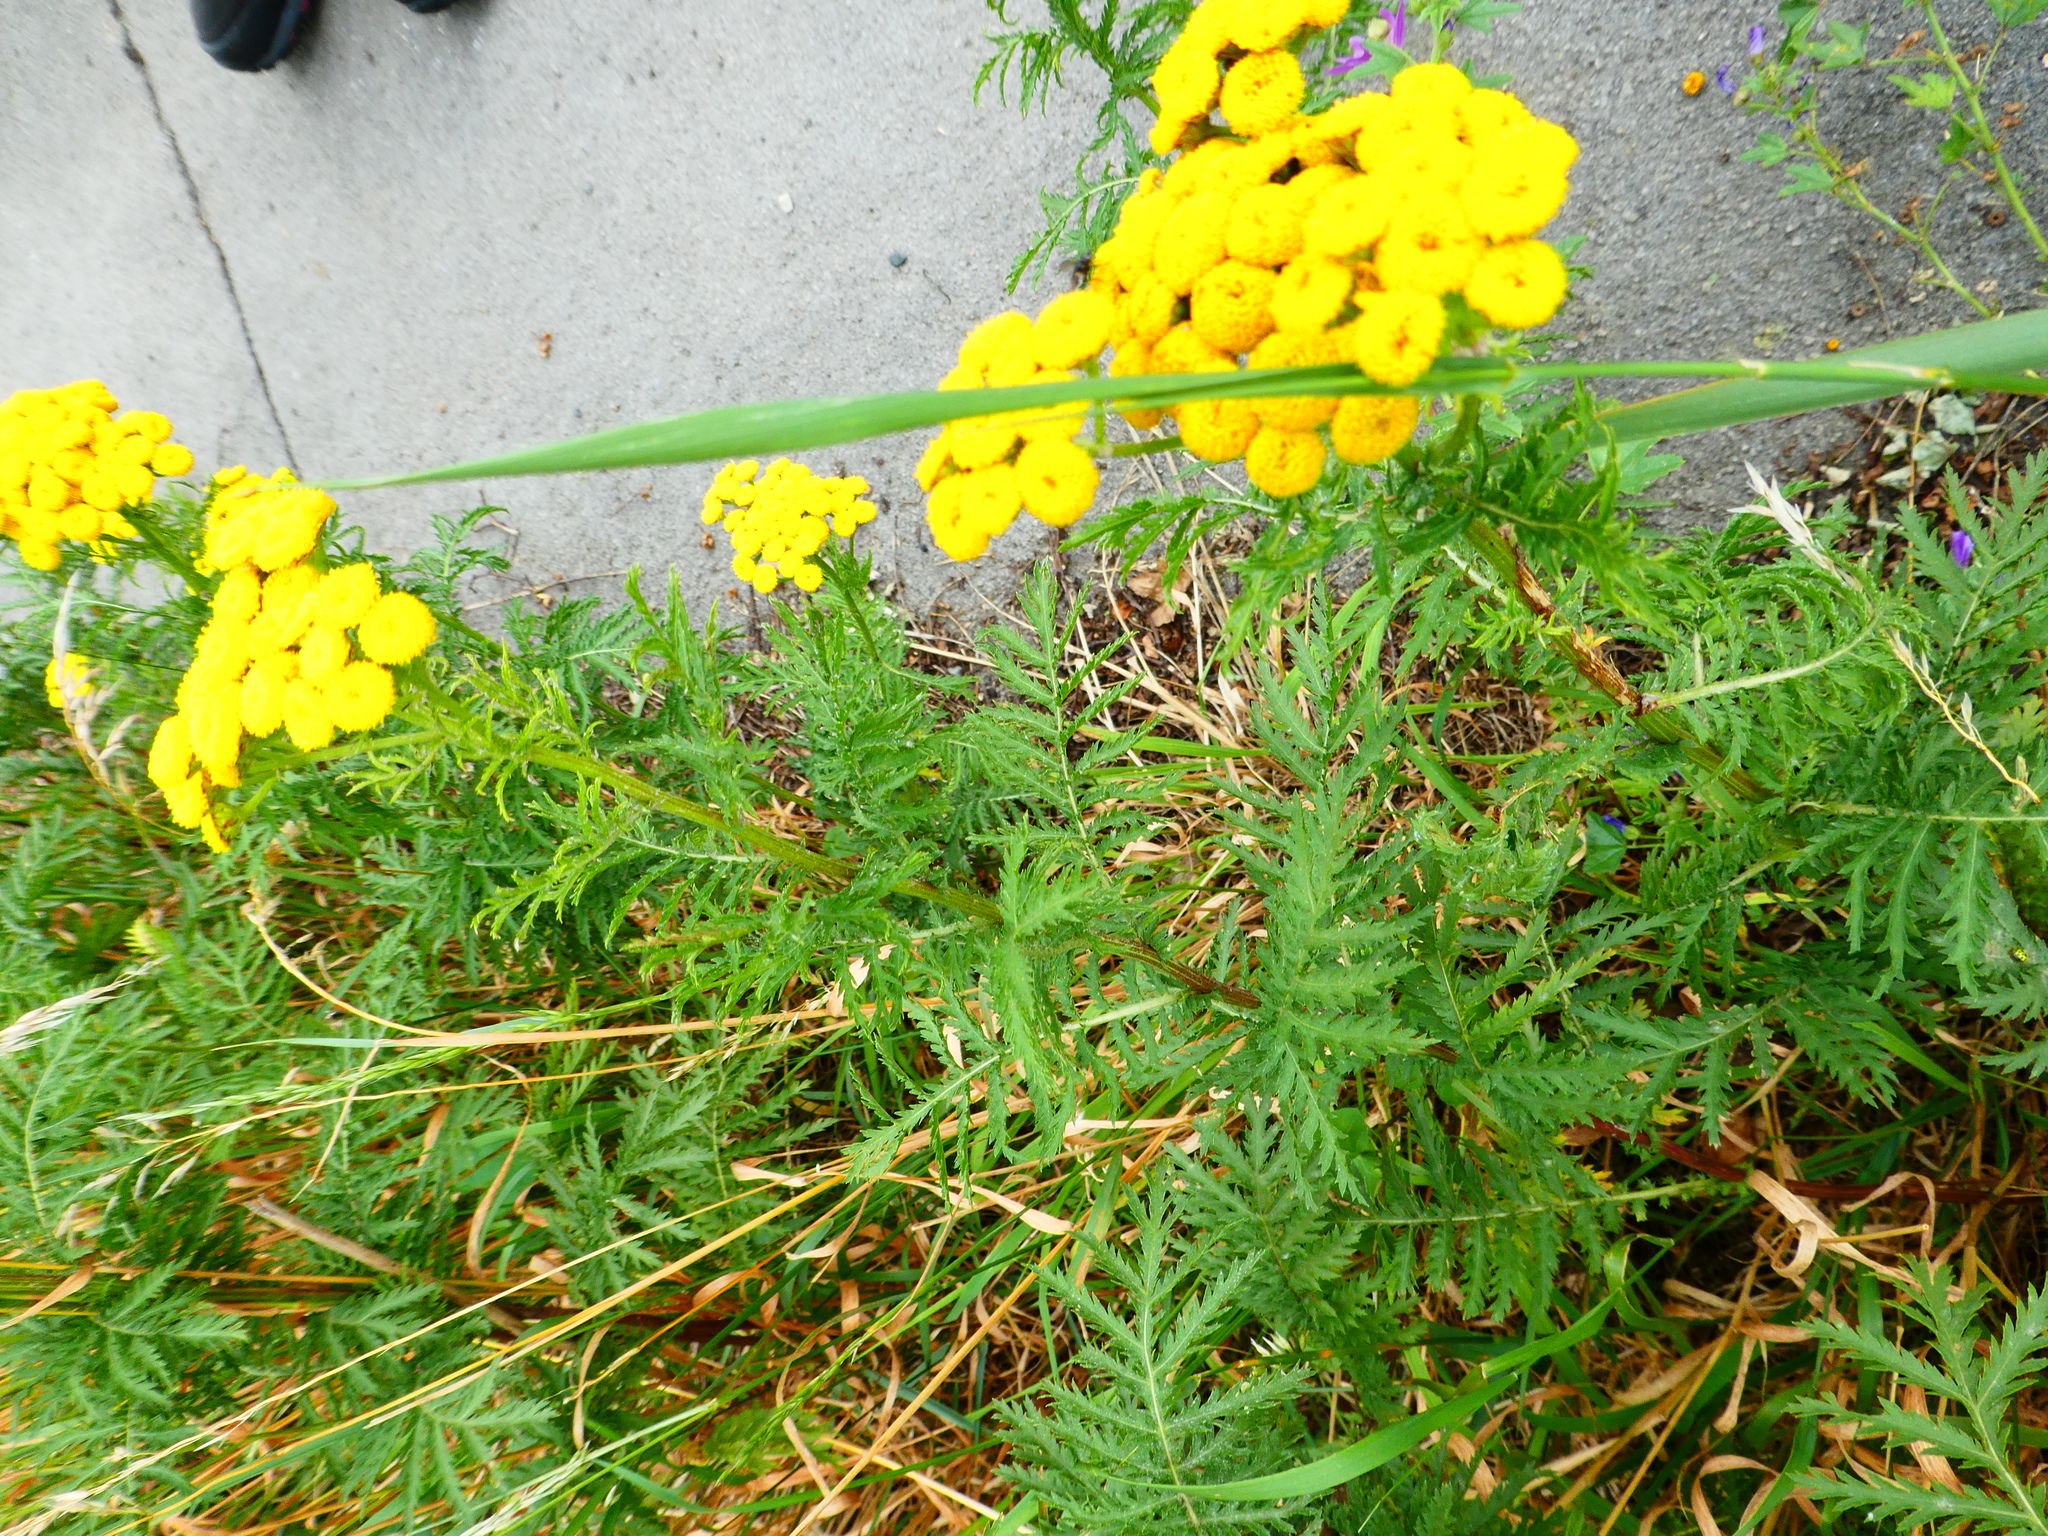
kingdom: Plantae
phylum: Tracheophyta
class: Magnoliopsida
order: Asterales
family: Asteraceae
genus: Tanacetum
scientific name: Tanacetum vulgare
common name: Common tansy
